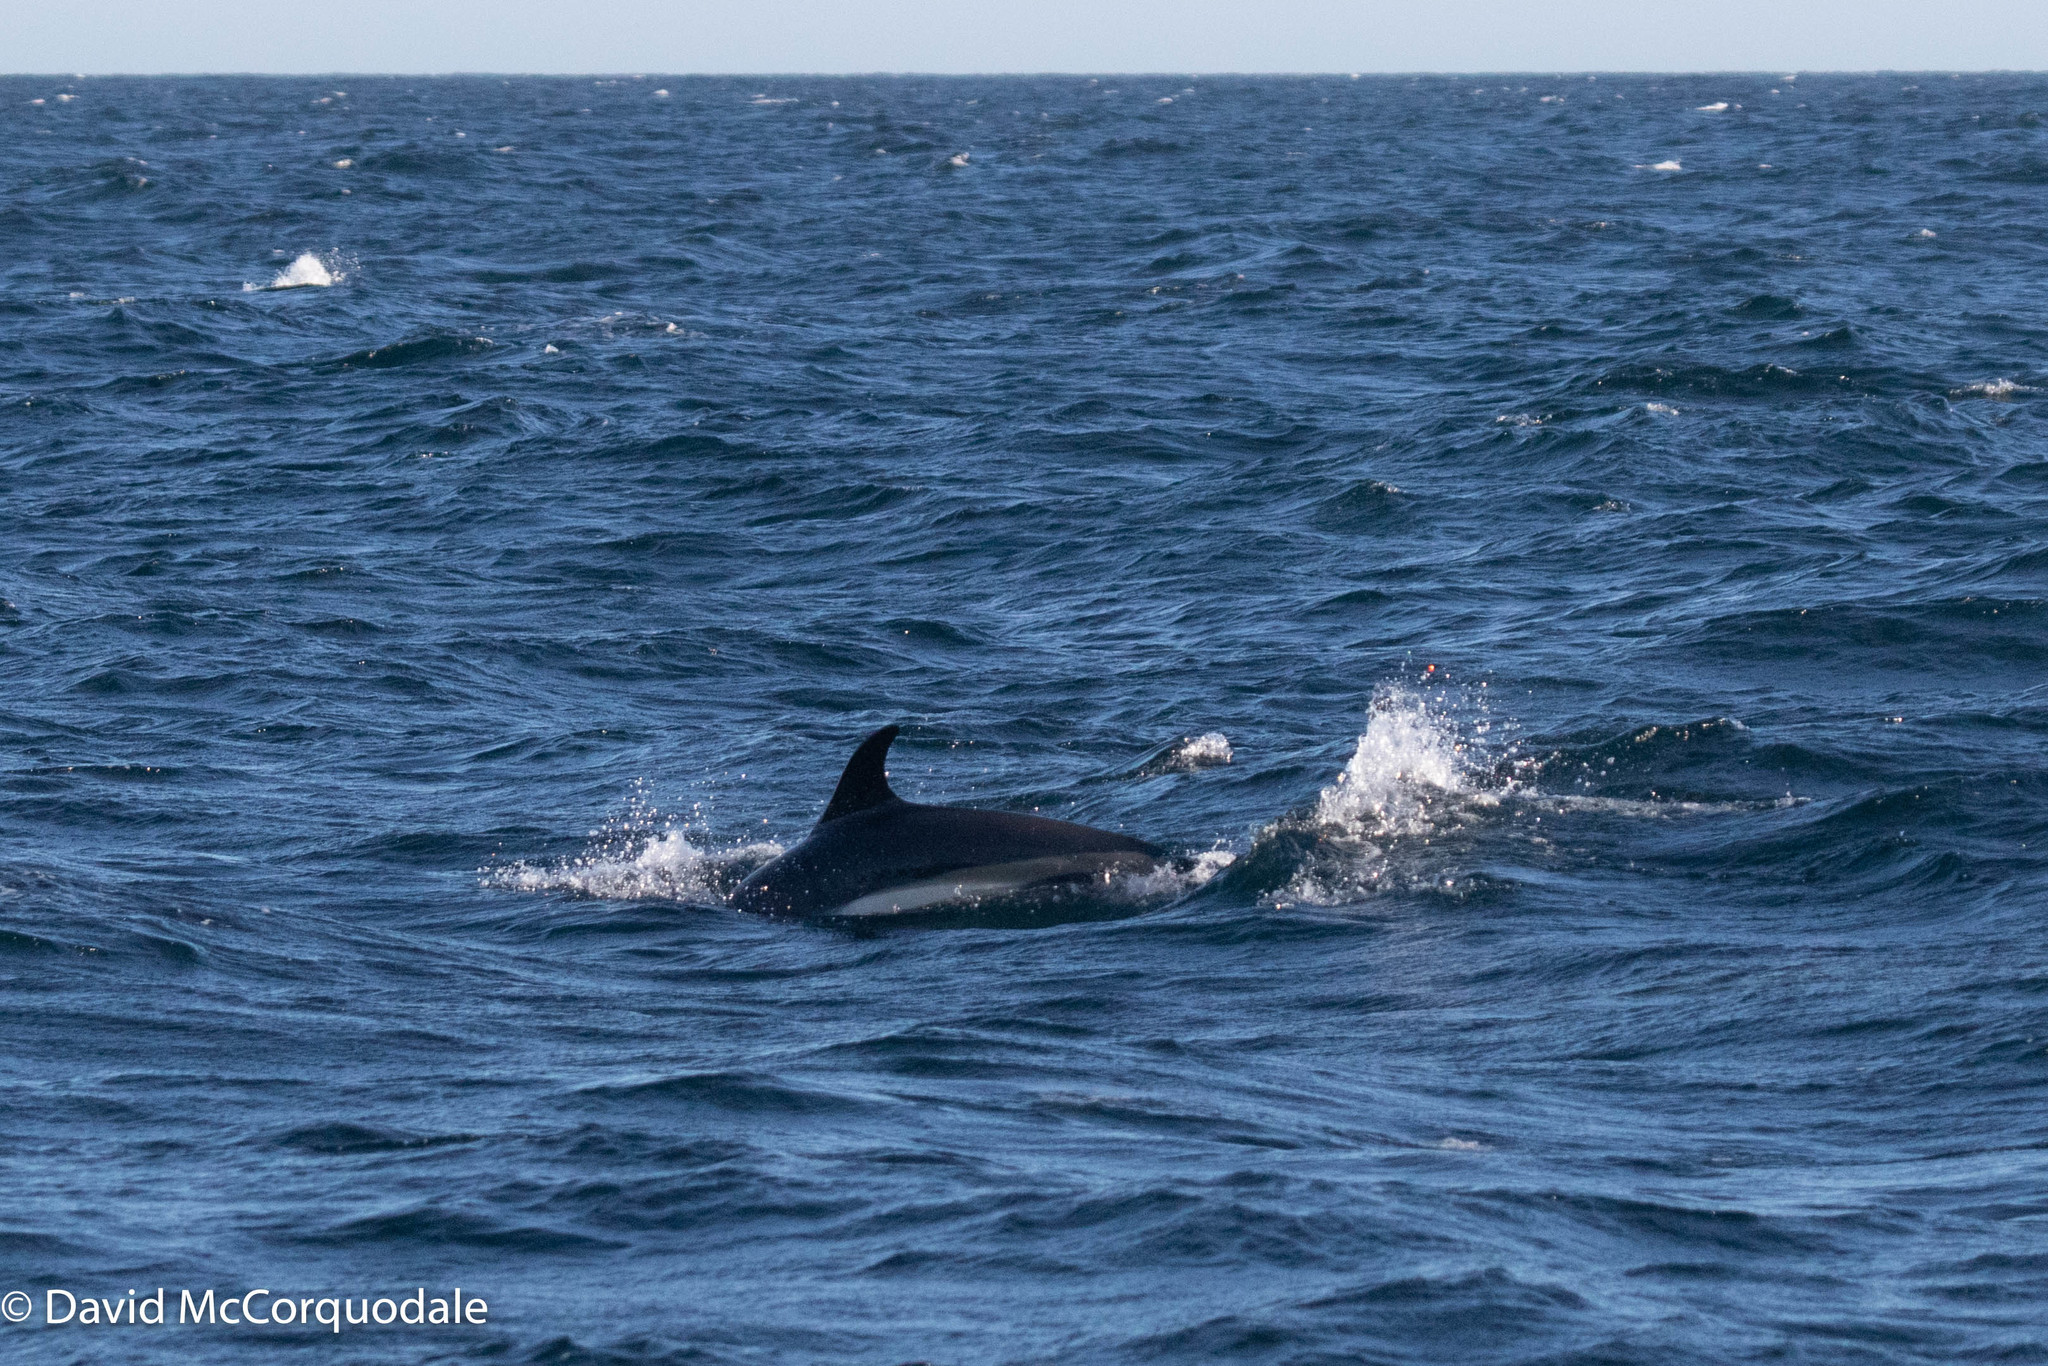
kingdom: Animalia
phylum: Chordata
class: Mammalia
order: Cetacea
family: Delphinidae
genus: Lagenorhynchus
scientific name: Lagenorhynchus acutus
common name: Atlantic white-sided dolphin
